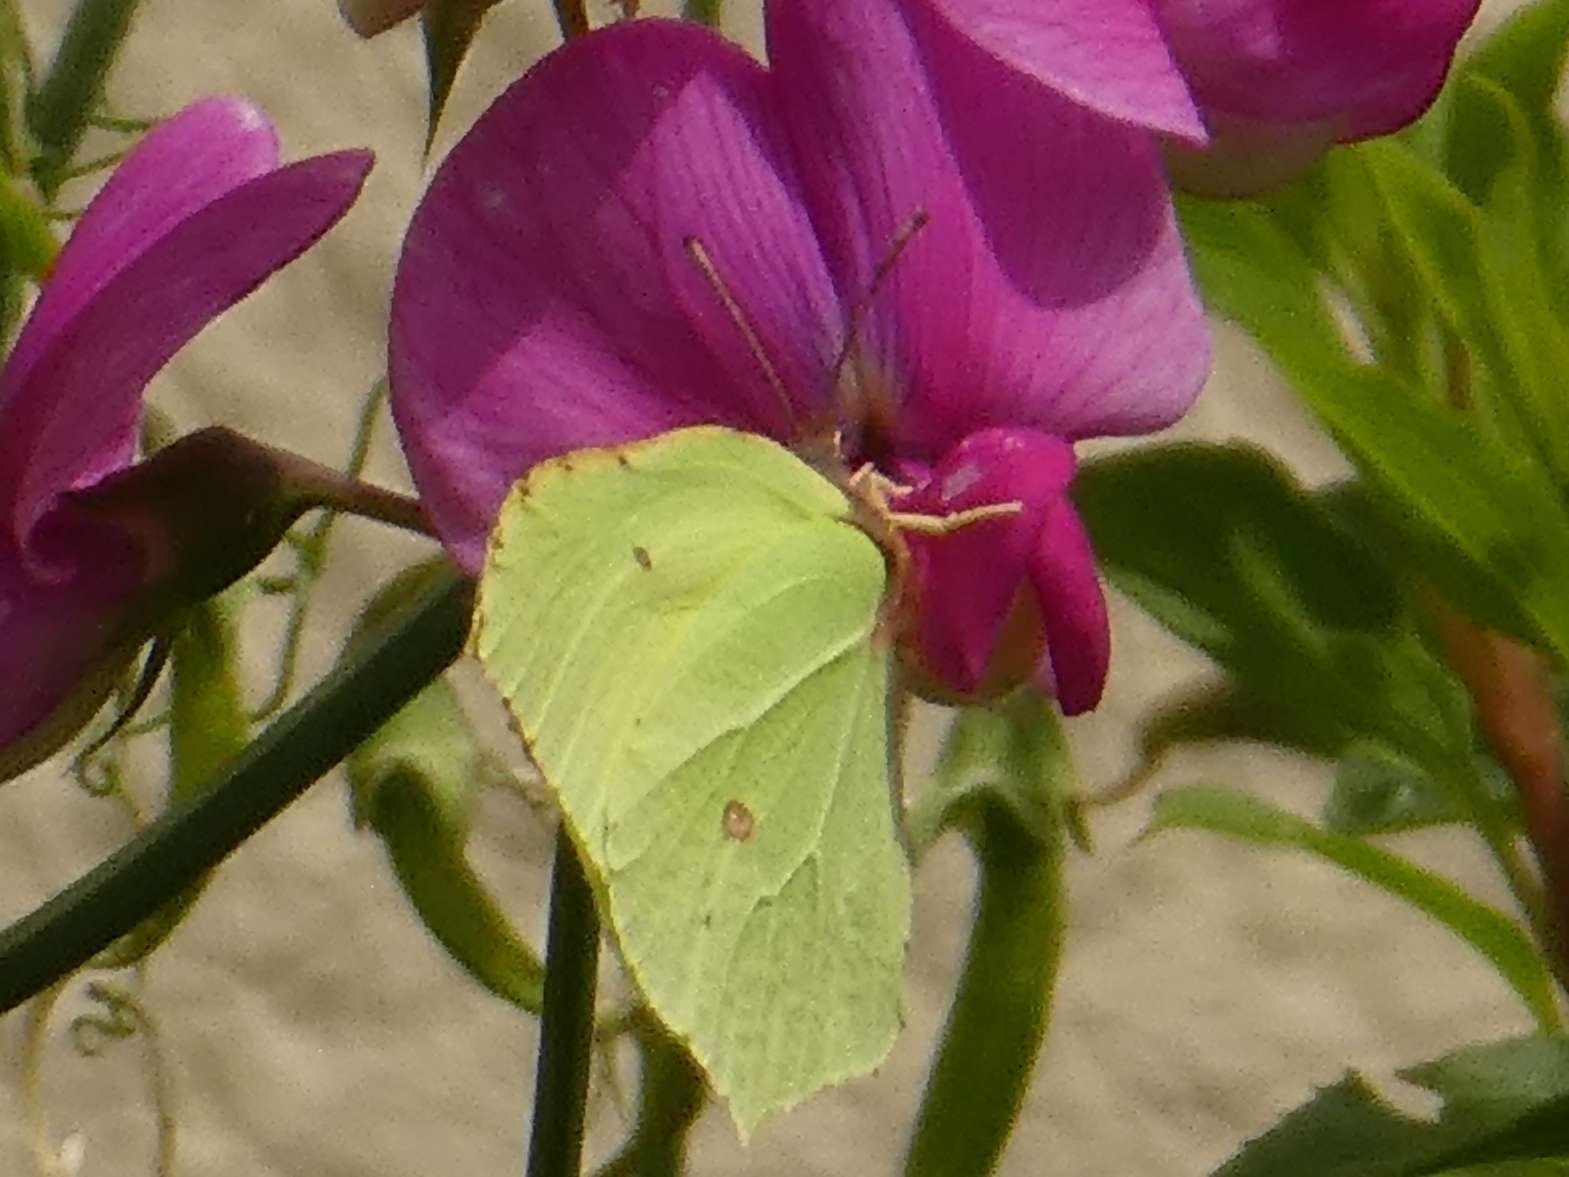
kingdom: Animalia
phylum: Arthropoda
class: Insecta
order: Lepidoptera
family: Pieridae
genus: Gonepteryx
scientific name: Gonepteryx rhamni
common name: Brimstone
